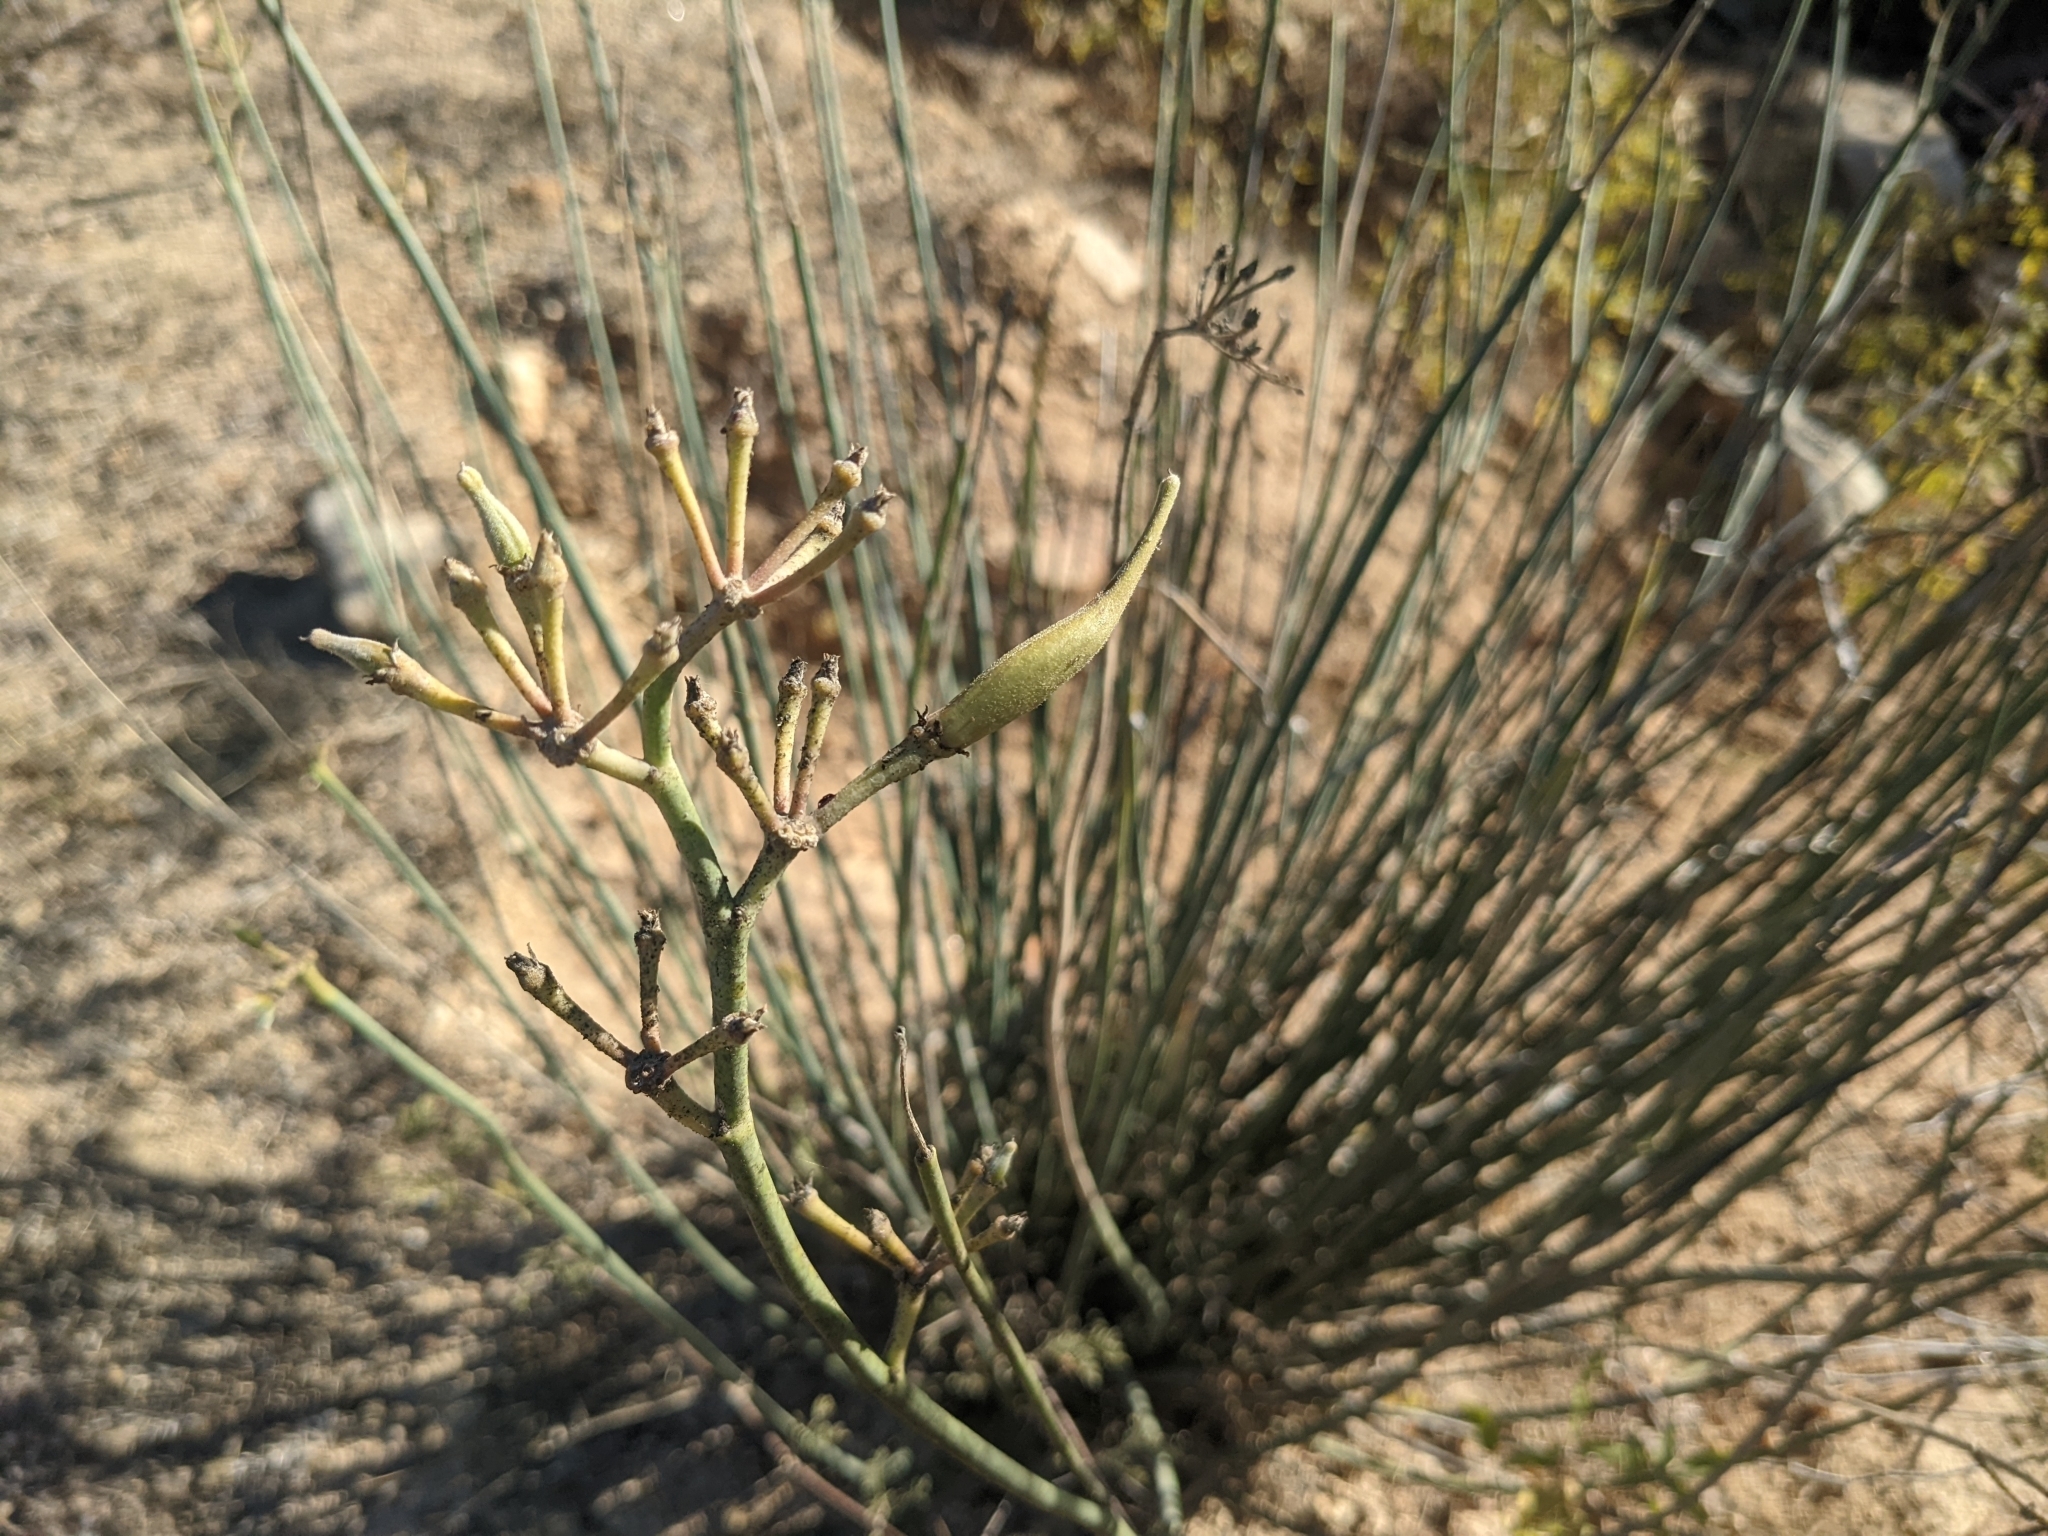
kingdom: Plantae
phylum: Tracheophyta
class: Magnoliopsida
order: Gentianales
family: Apocynaceae
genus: Asclepias
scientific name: Asclepias subulata
